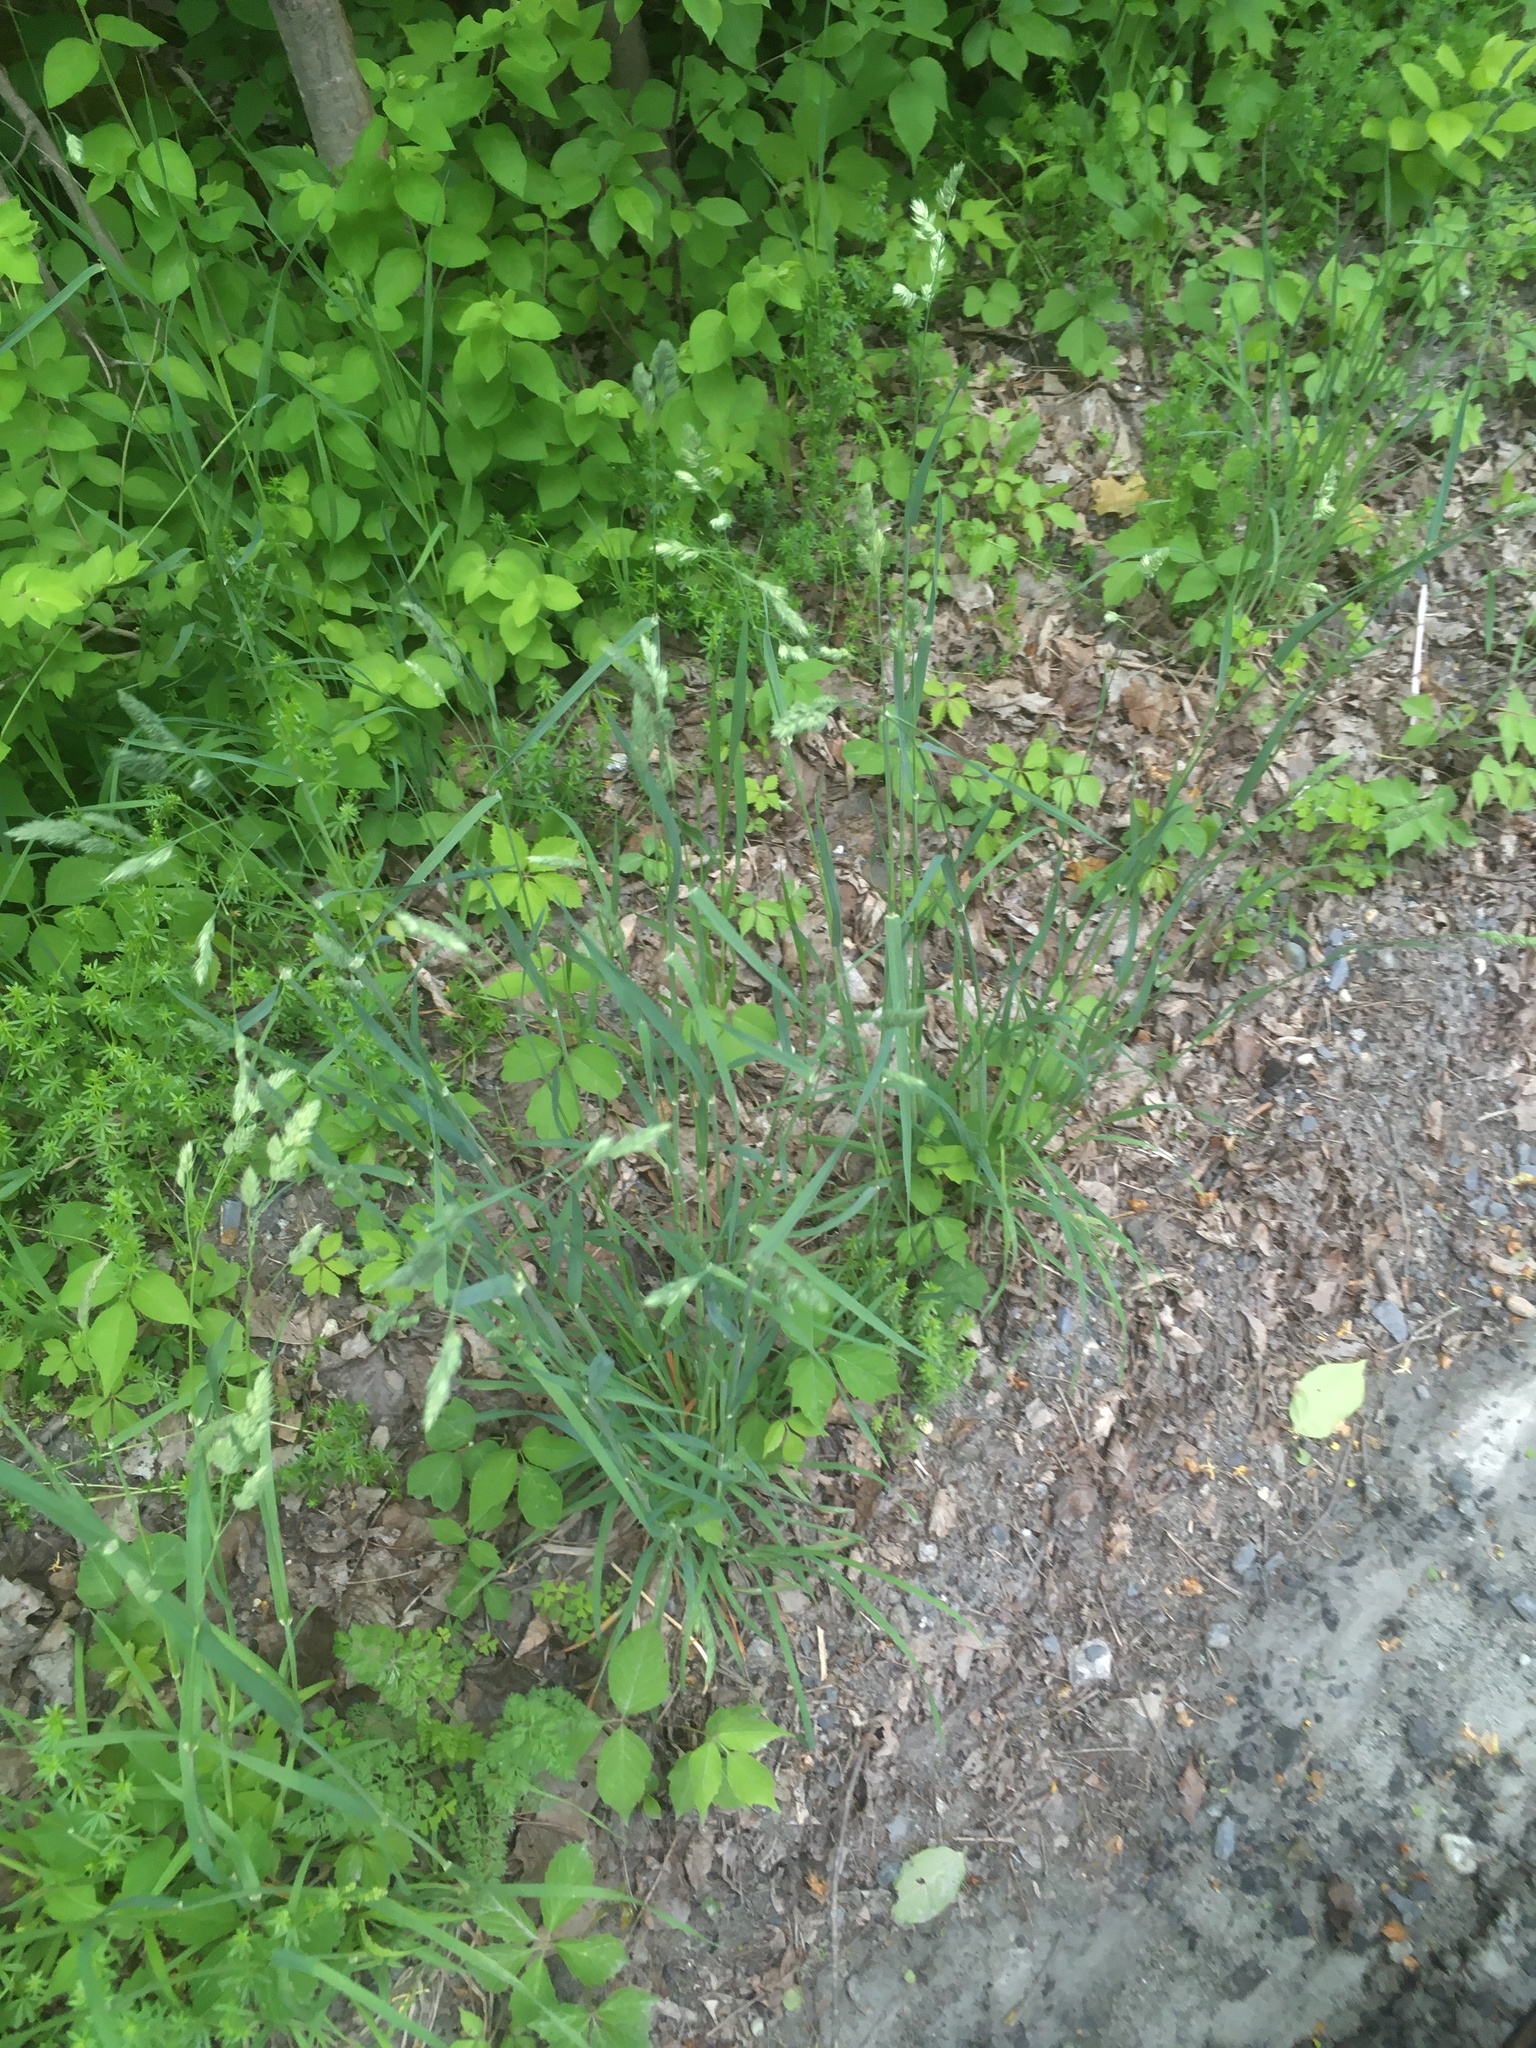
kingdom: Plantae
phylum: Tracheophyta
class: Liliopsida
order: Poales
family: Poaceae
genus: Dactylis
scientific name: Dactylis glomerata
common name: Orchardgrass
